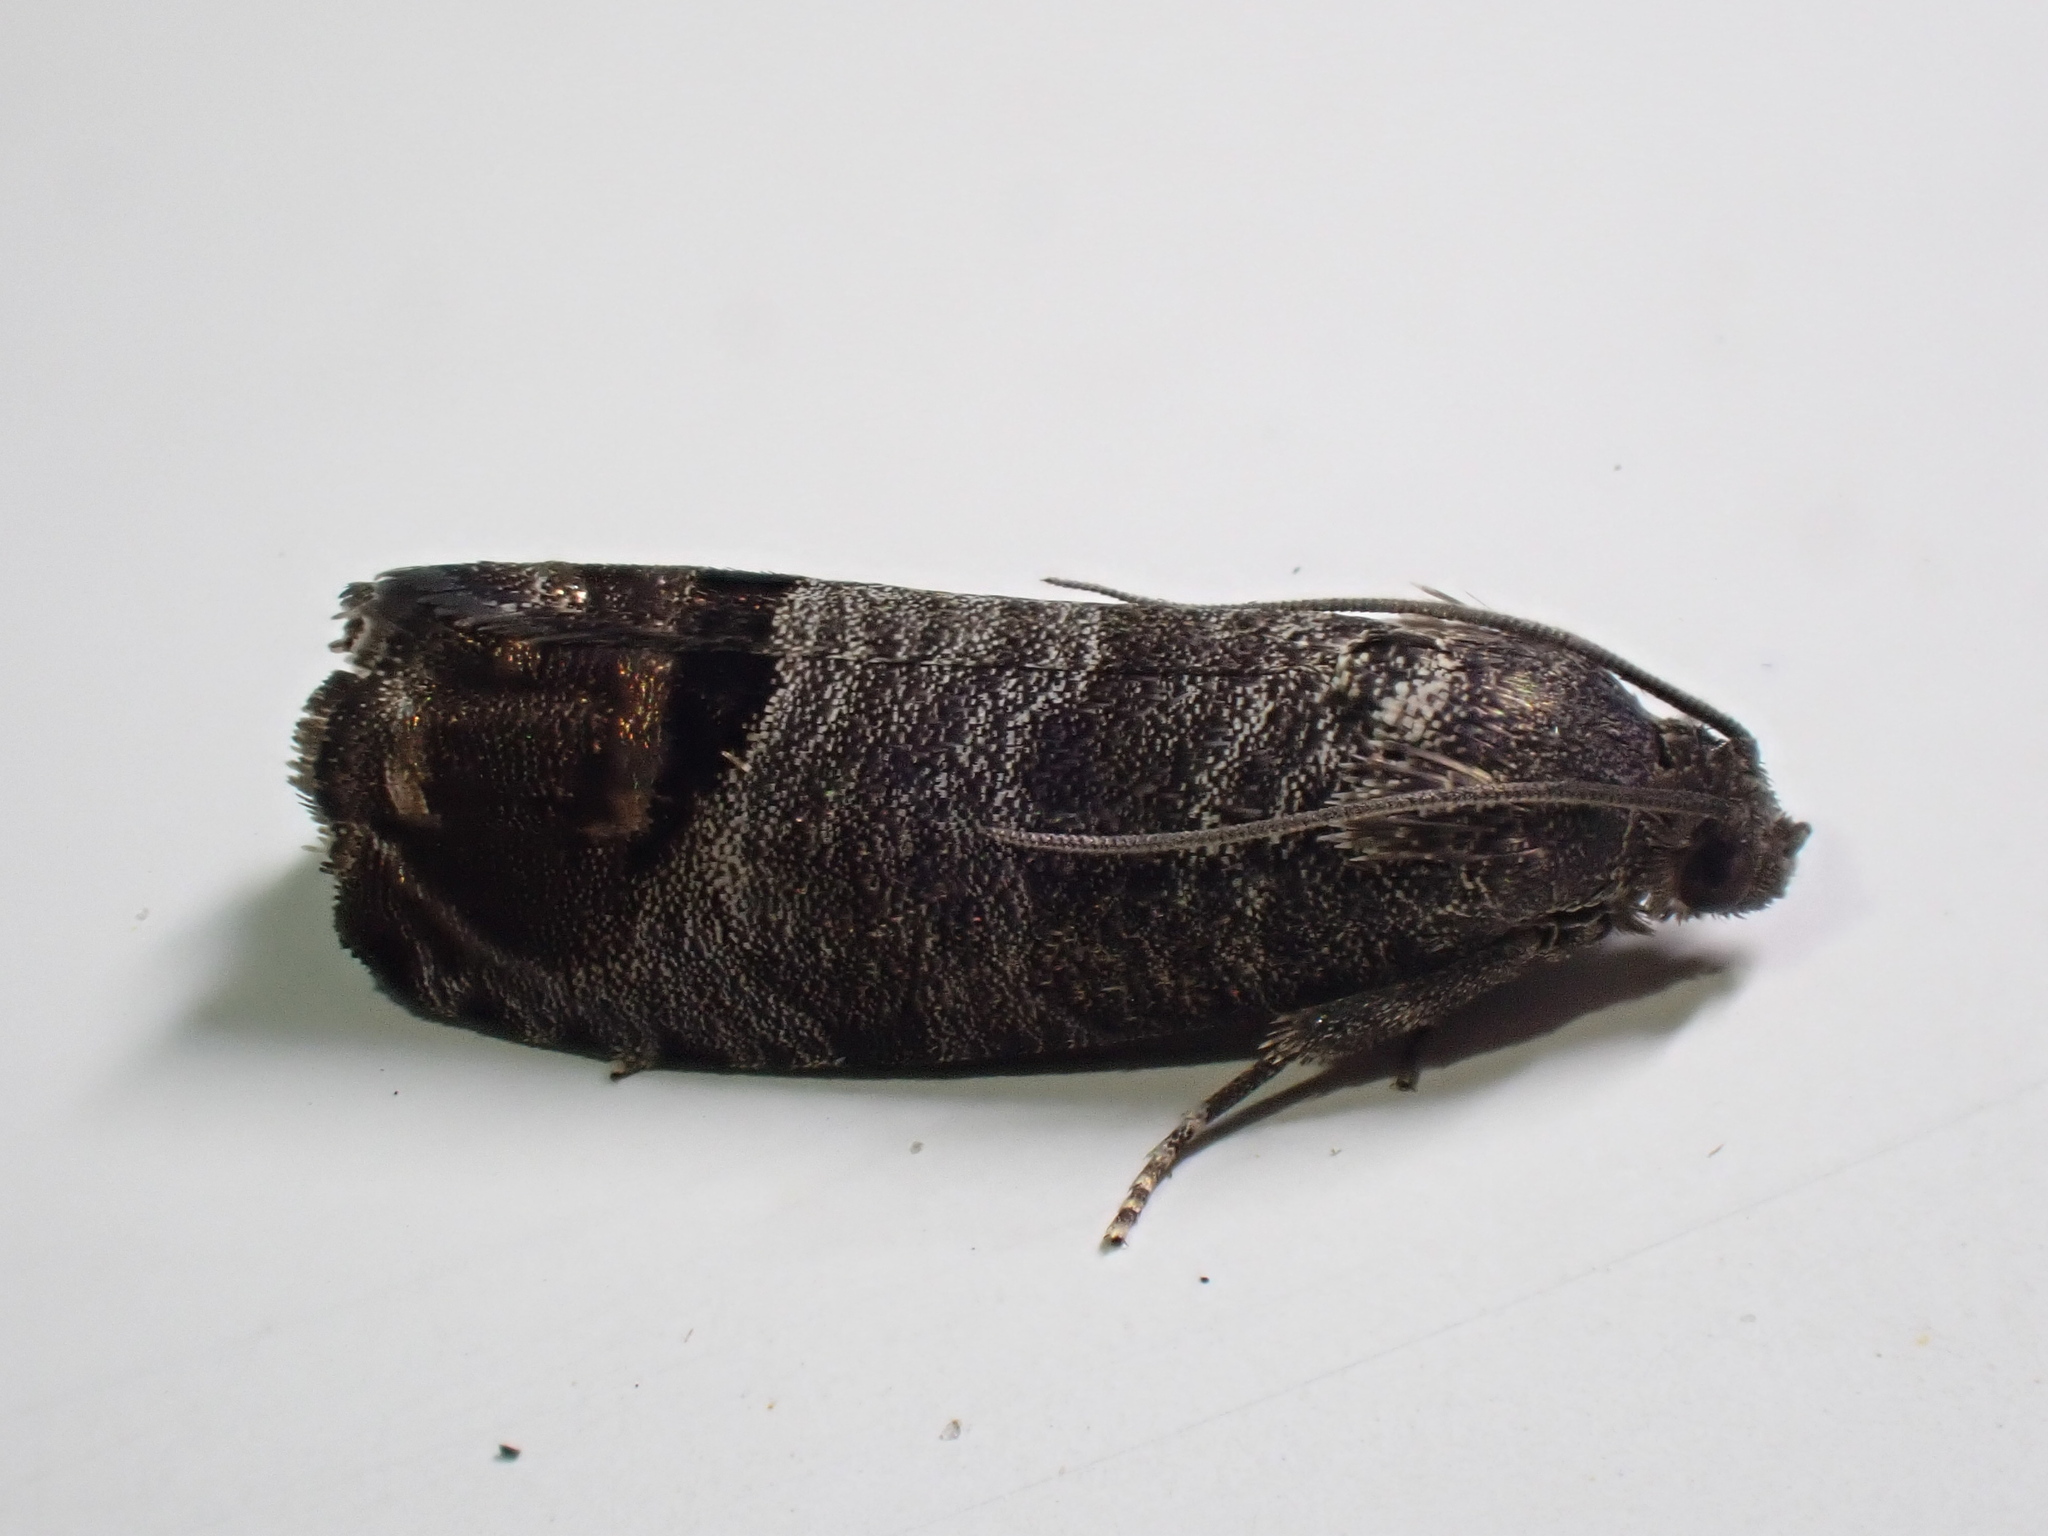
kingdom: Animalia
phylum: Arthropoda
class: Insecta
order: Lepidoptera
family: Tortricidae
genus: Cydia
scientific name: Cydia pomonella
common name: Codling moth
